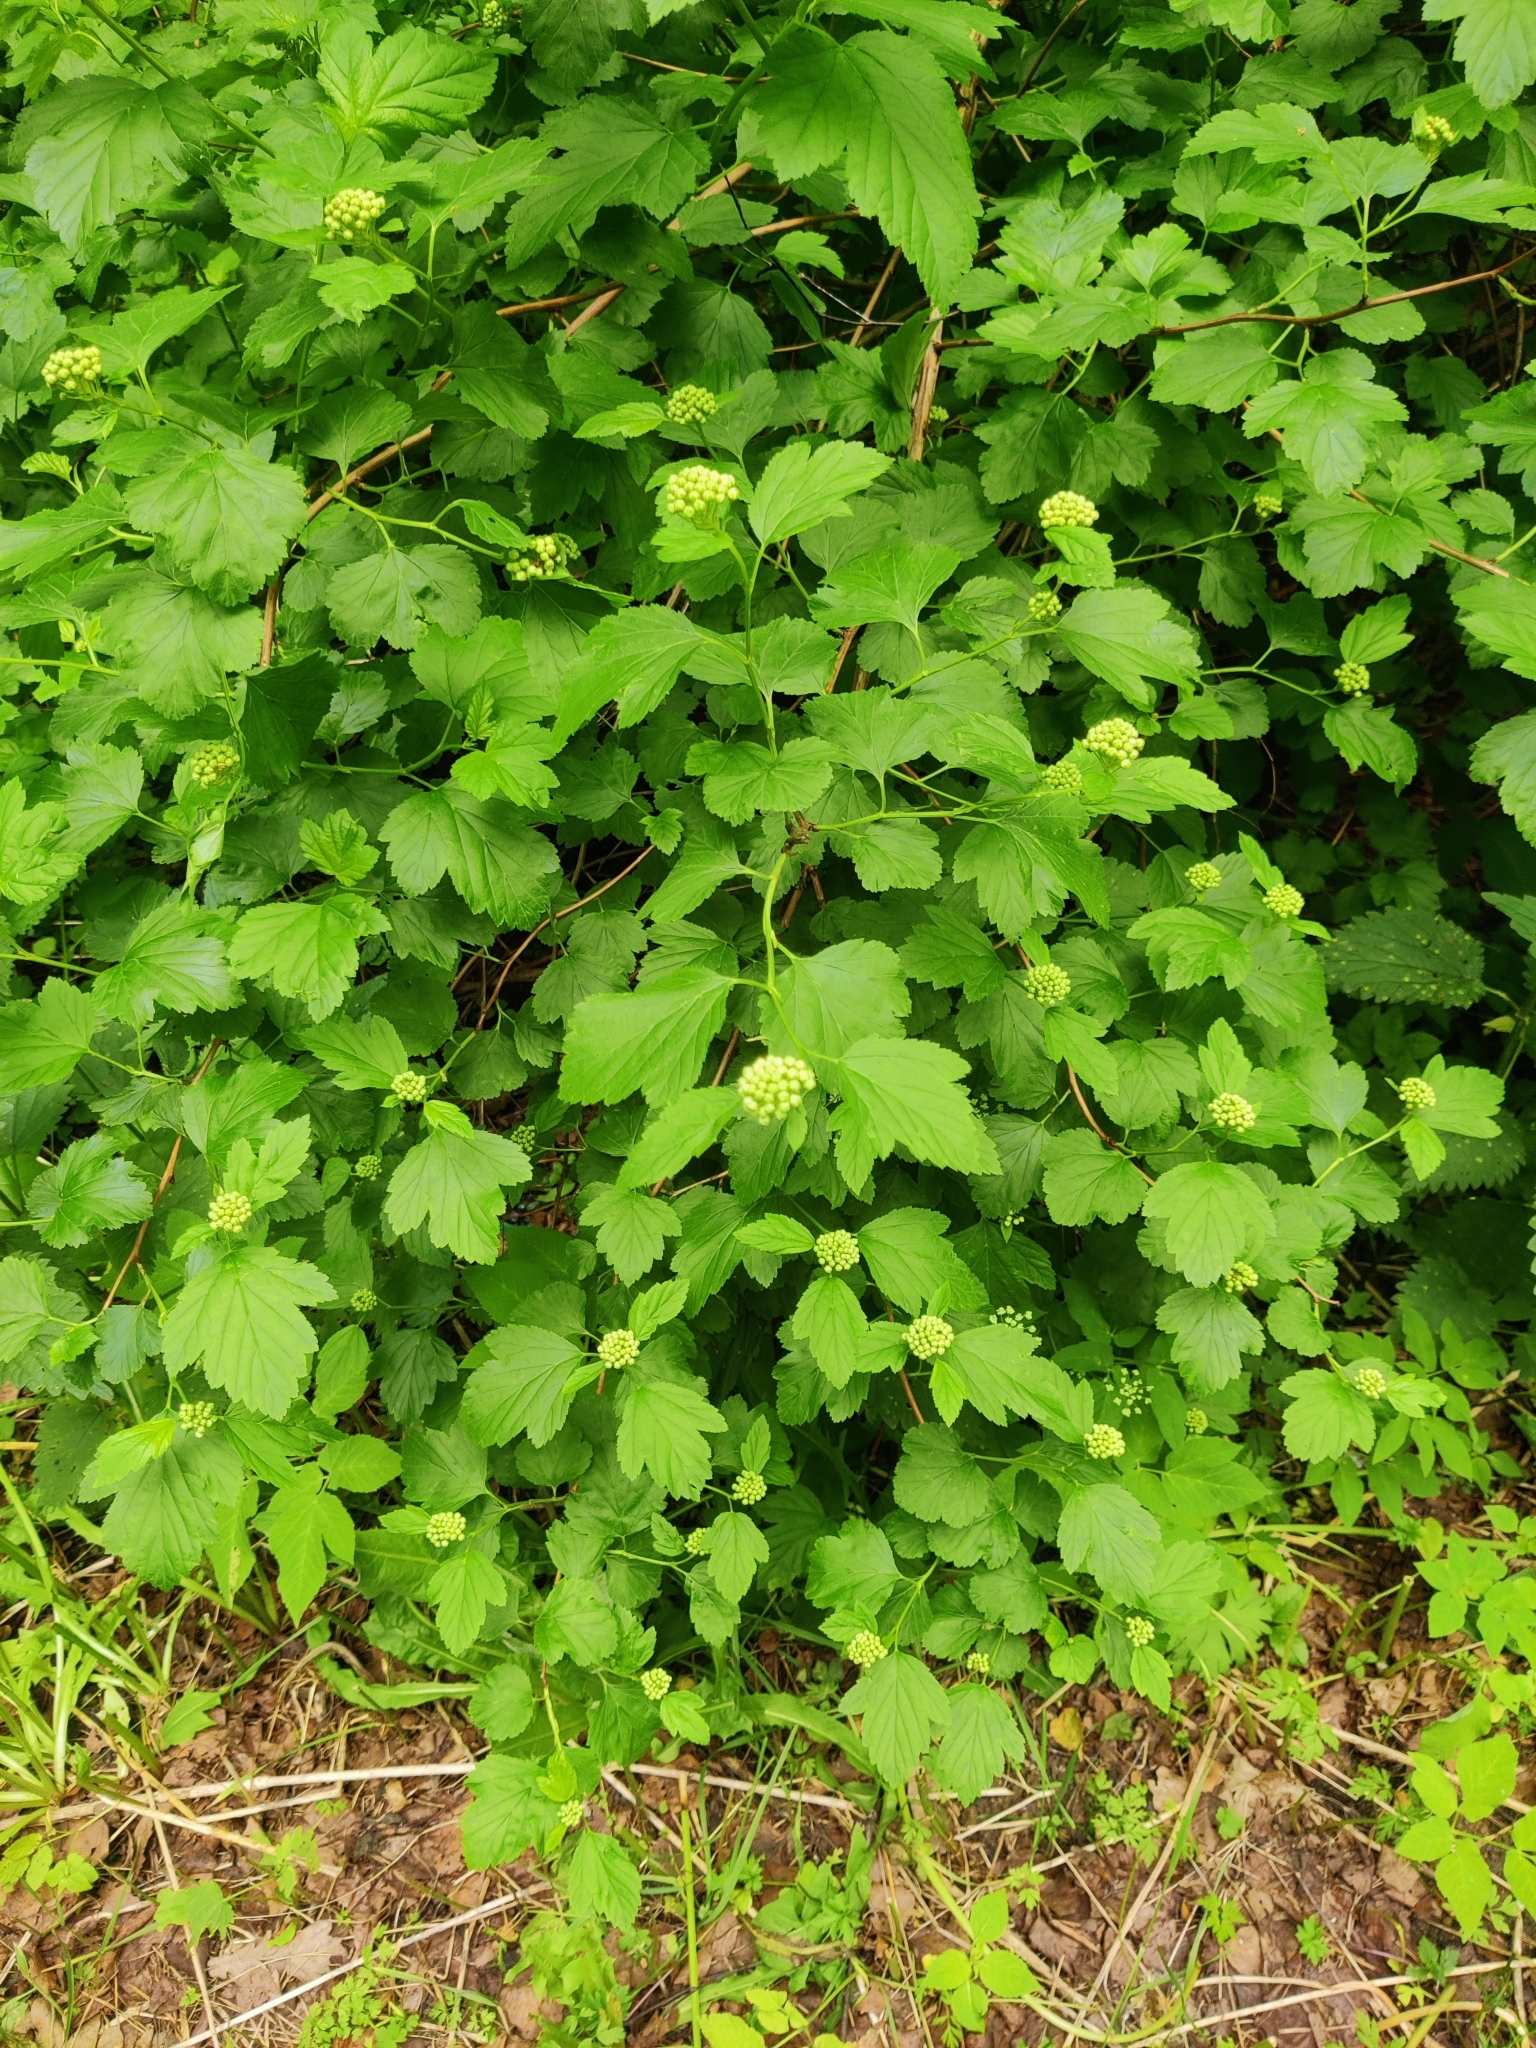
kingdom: Plantae
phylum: Tracheophyta
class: Magnoliopsida
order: Rosales
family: Rosaceae
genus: Physocarpus
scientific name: Physocarpus opulifolius
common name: Ninebark
